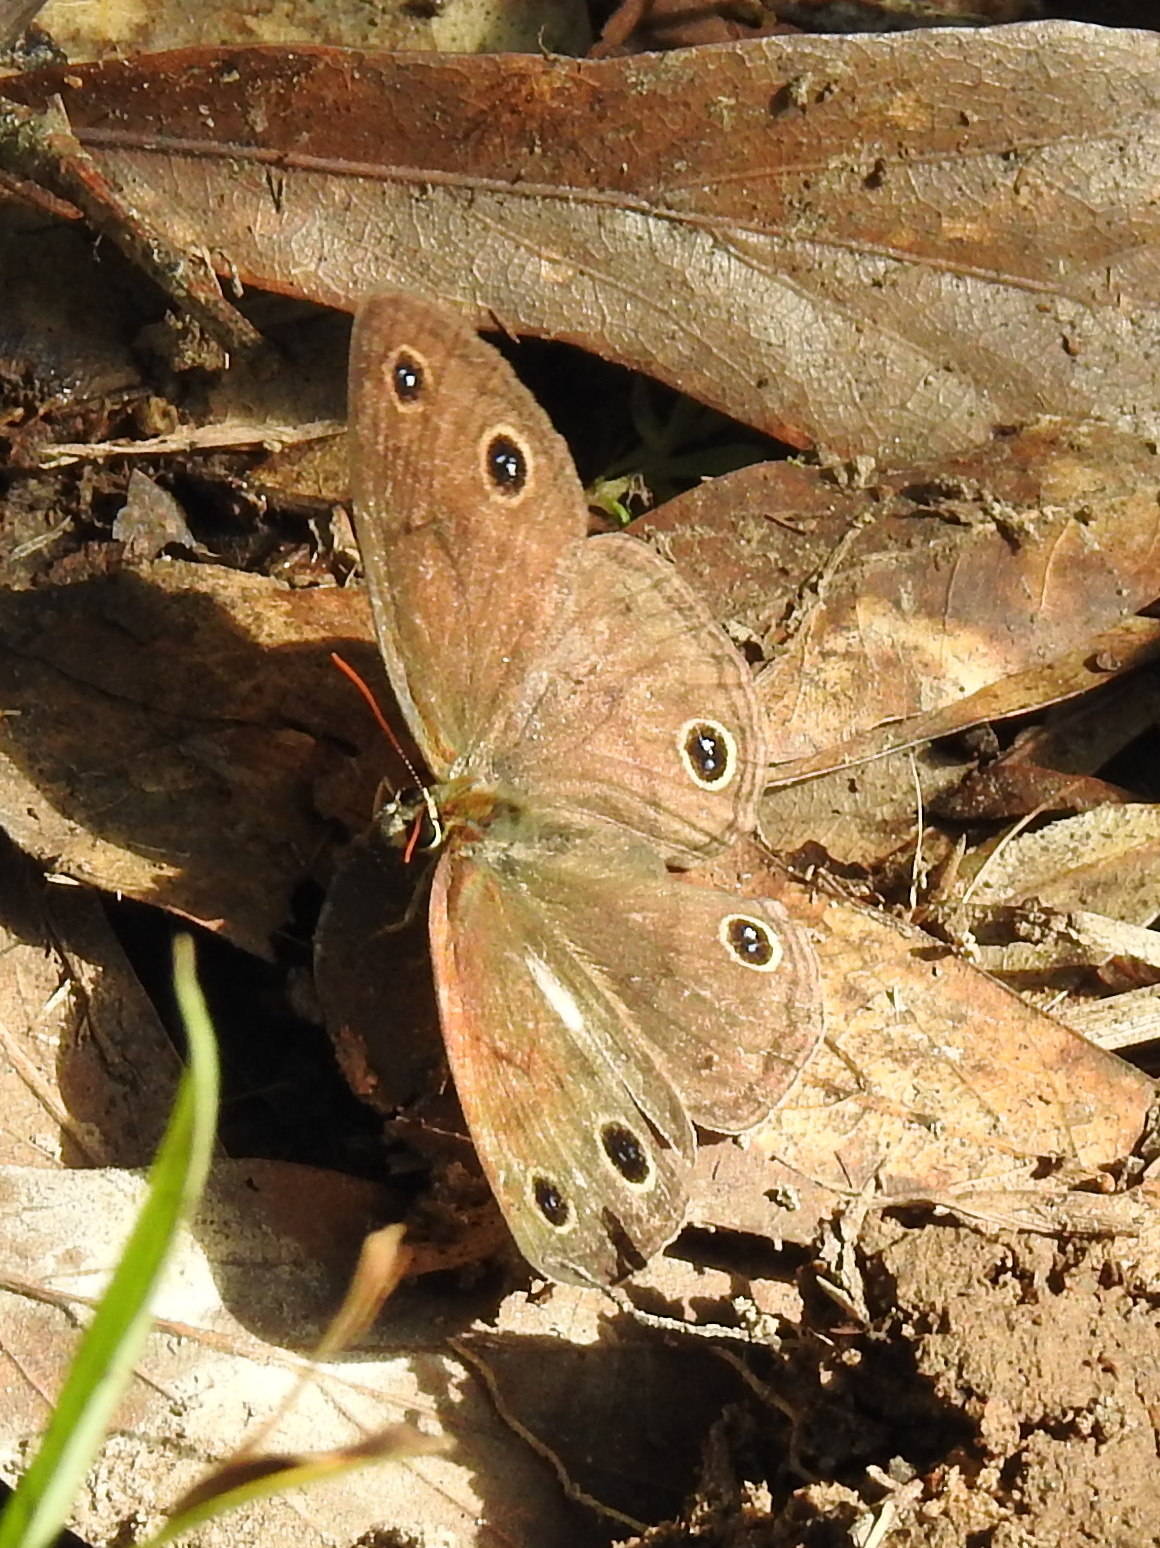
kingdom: Animalia
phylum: Arthropoda
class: Insecta
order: Lepidoptera
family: Nymphalidae
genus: Euptychia
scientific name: Euptychia cymela
